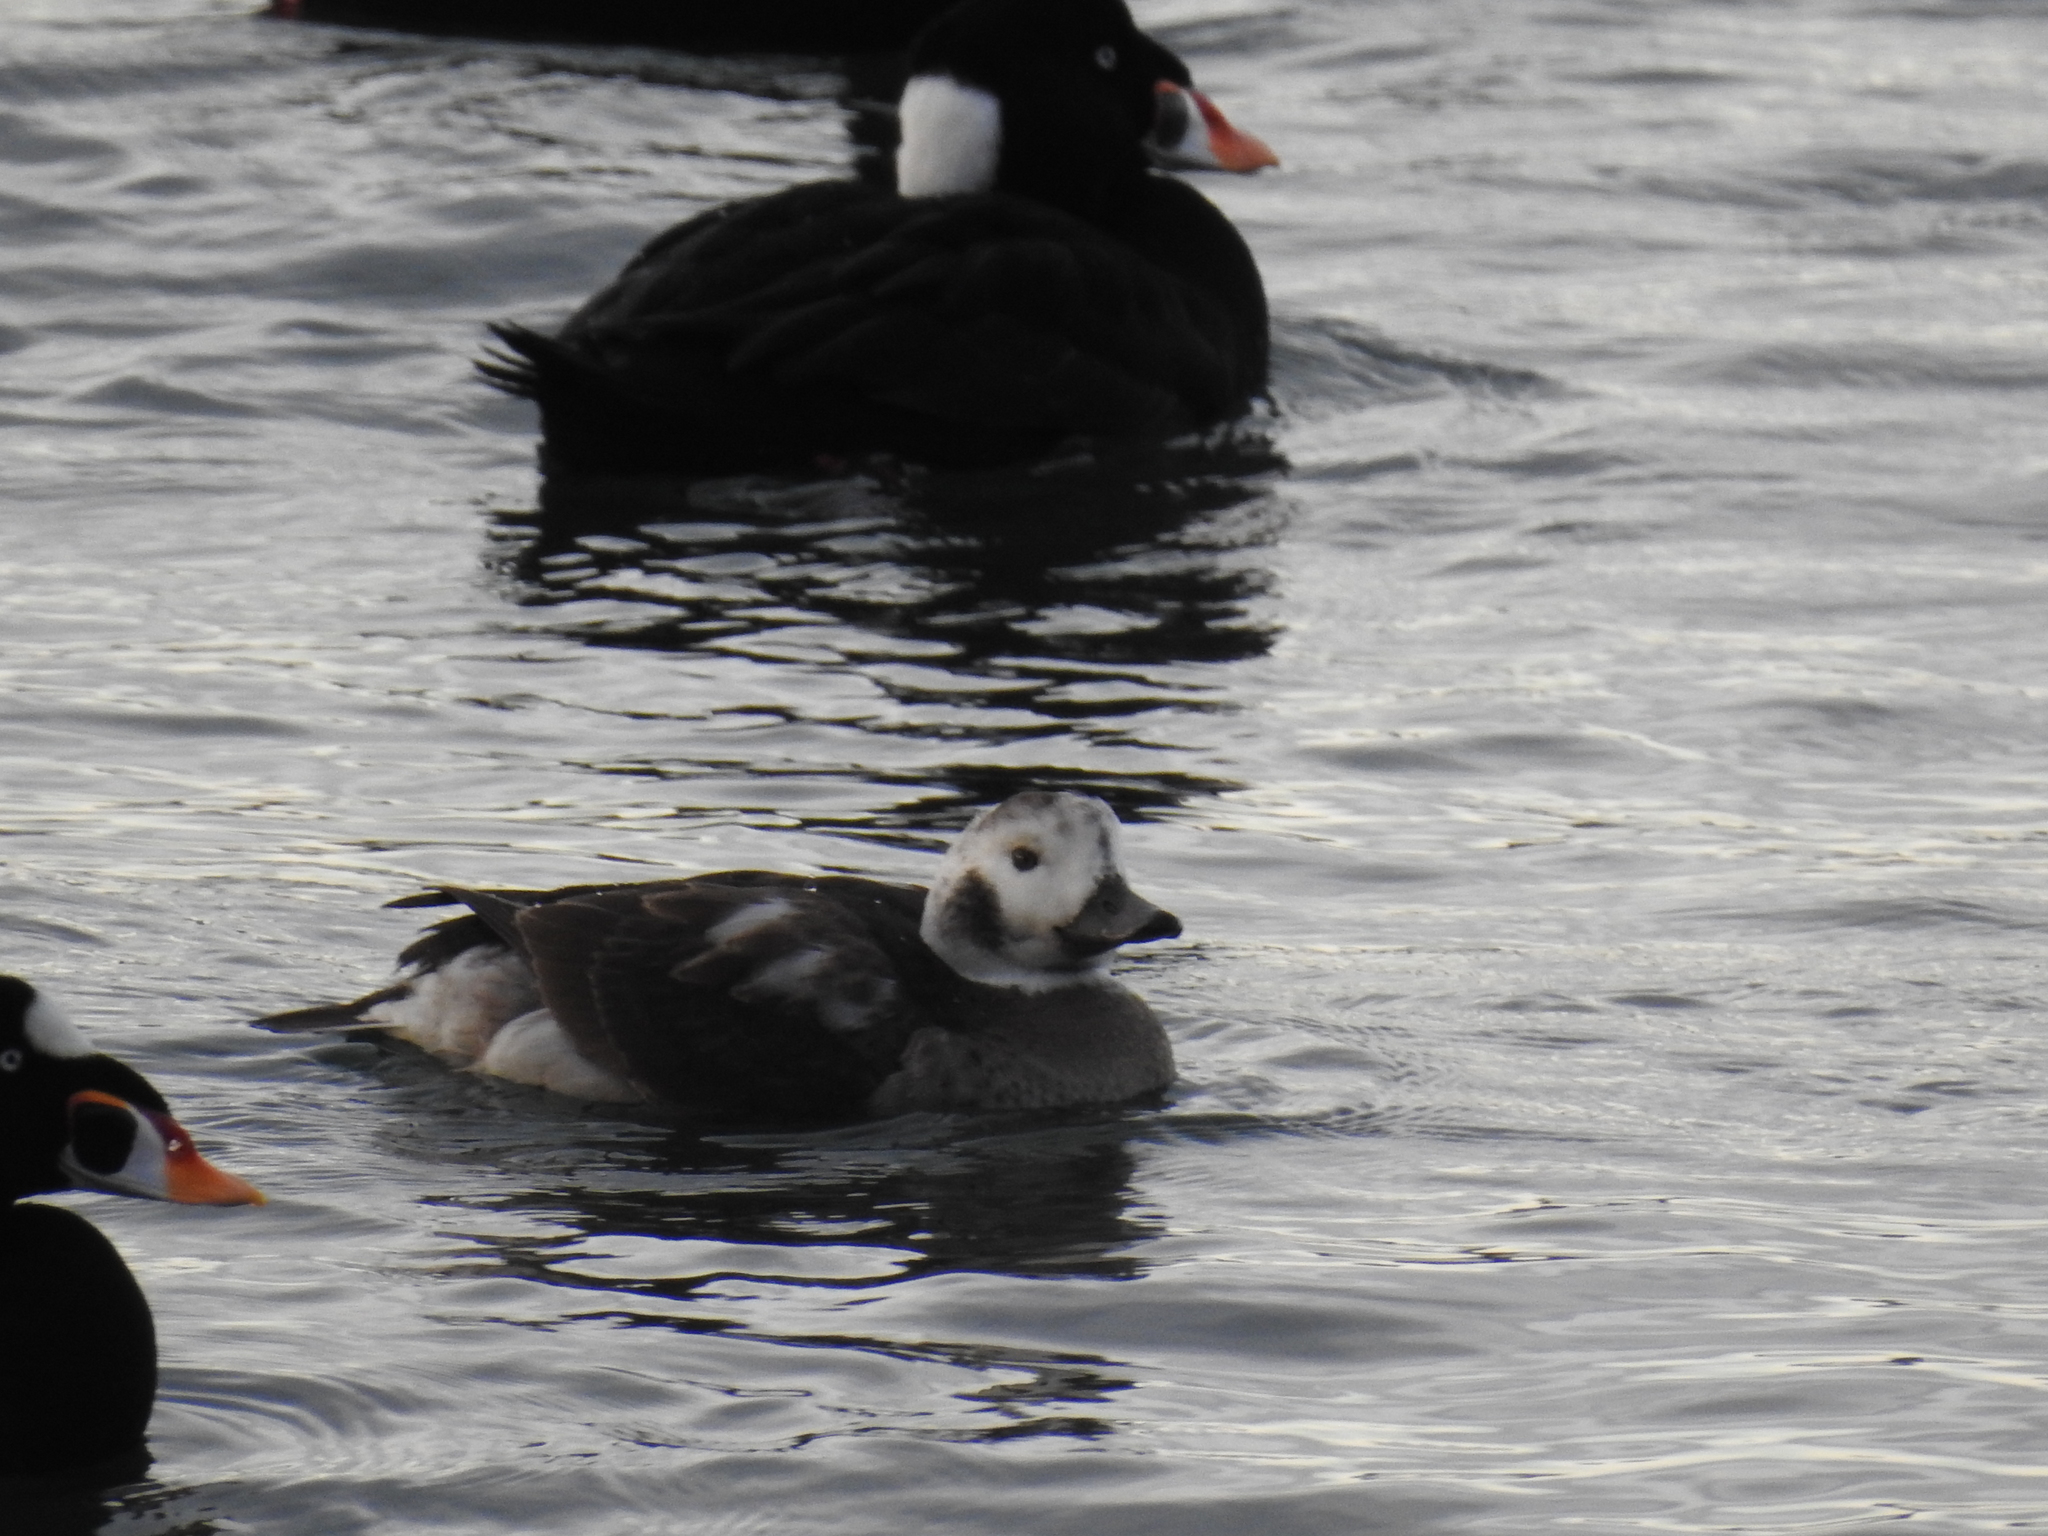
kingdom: Animalia
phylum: Chordata
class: Aves
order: Anseriformes
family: Anatidae
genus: Clangula
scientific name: Clangula hyemalis
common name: Long-tailed duck
